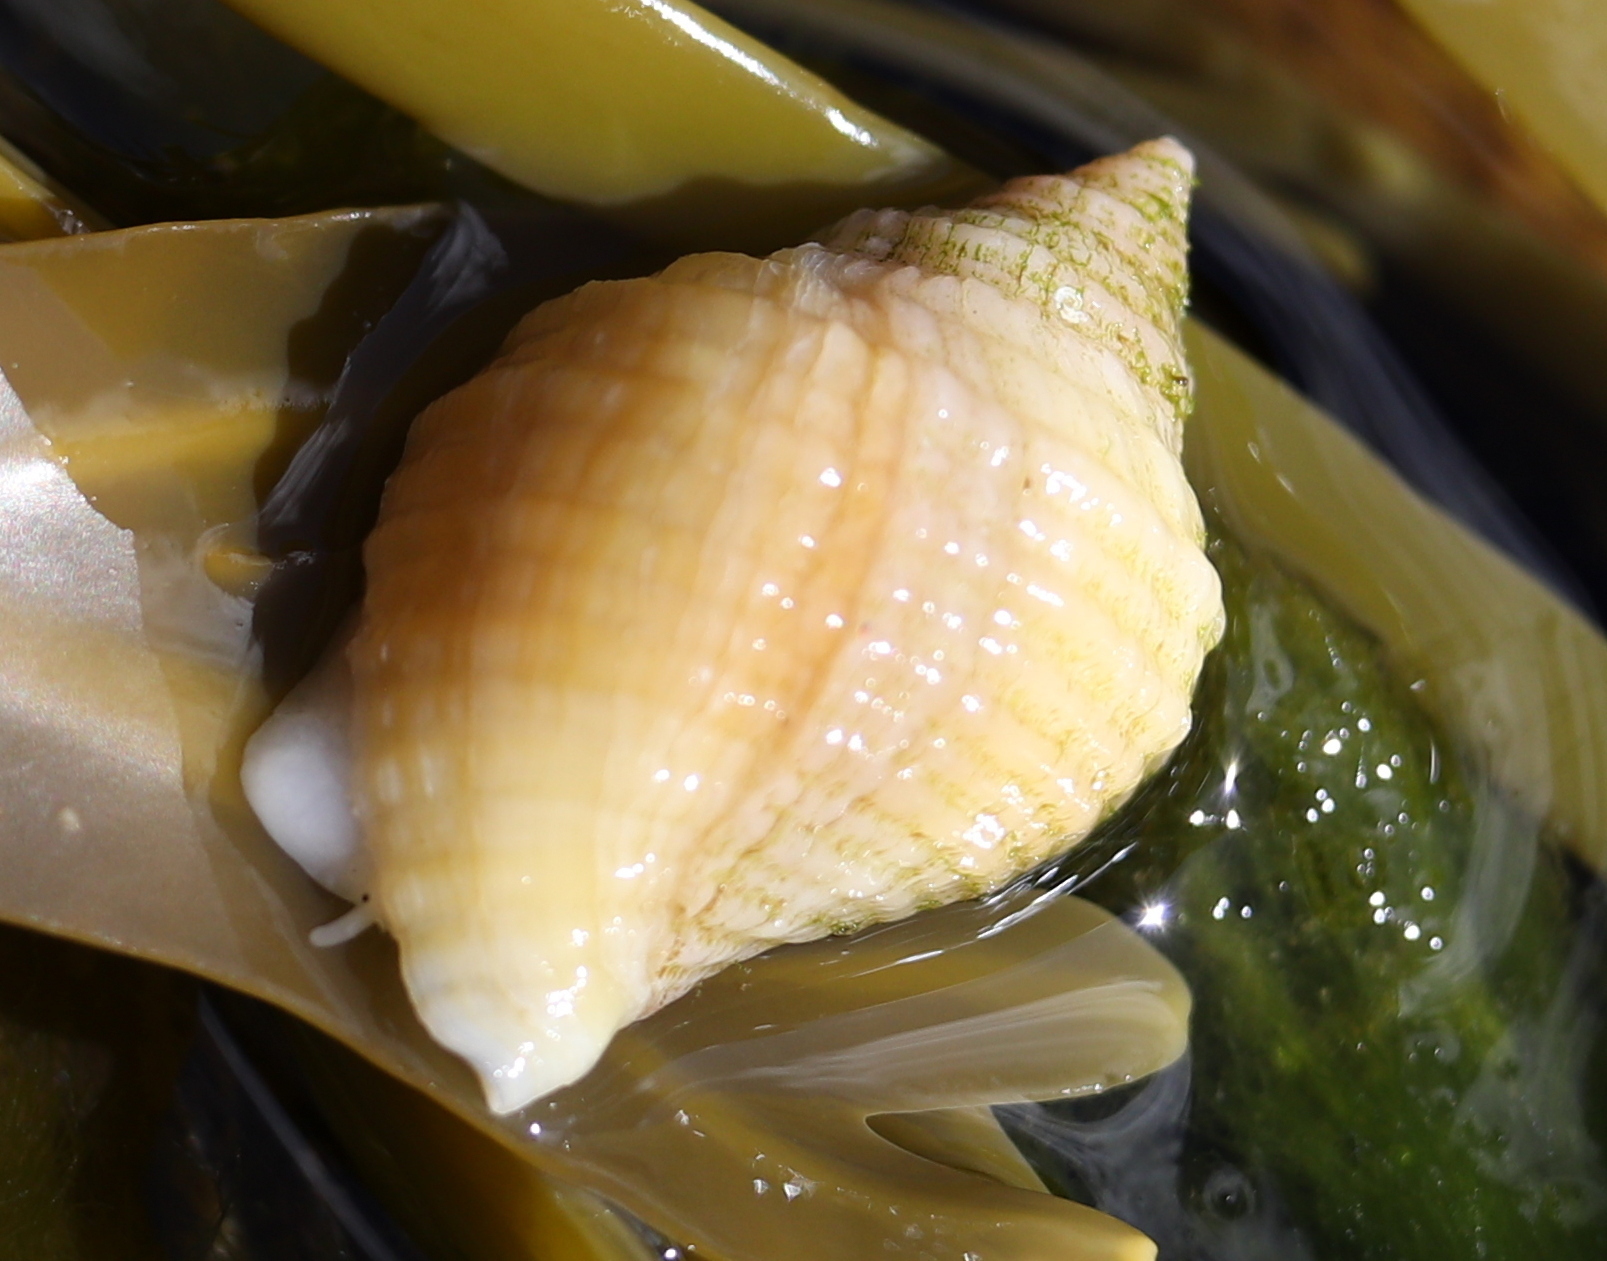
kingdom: Animalia
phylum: Mollusca
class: Gastropoda
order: Neogastropoda
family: Muricidae
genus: Nucella
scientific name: Nucella lapillus
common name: Dog whelk
